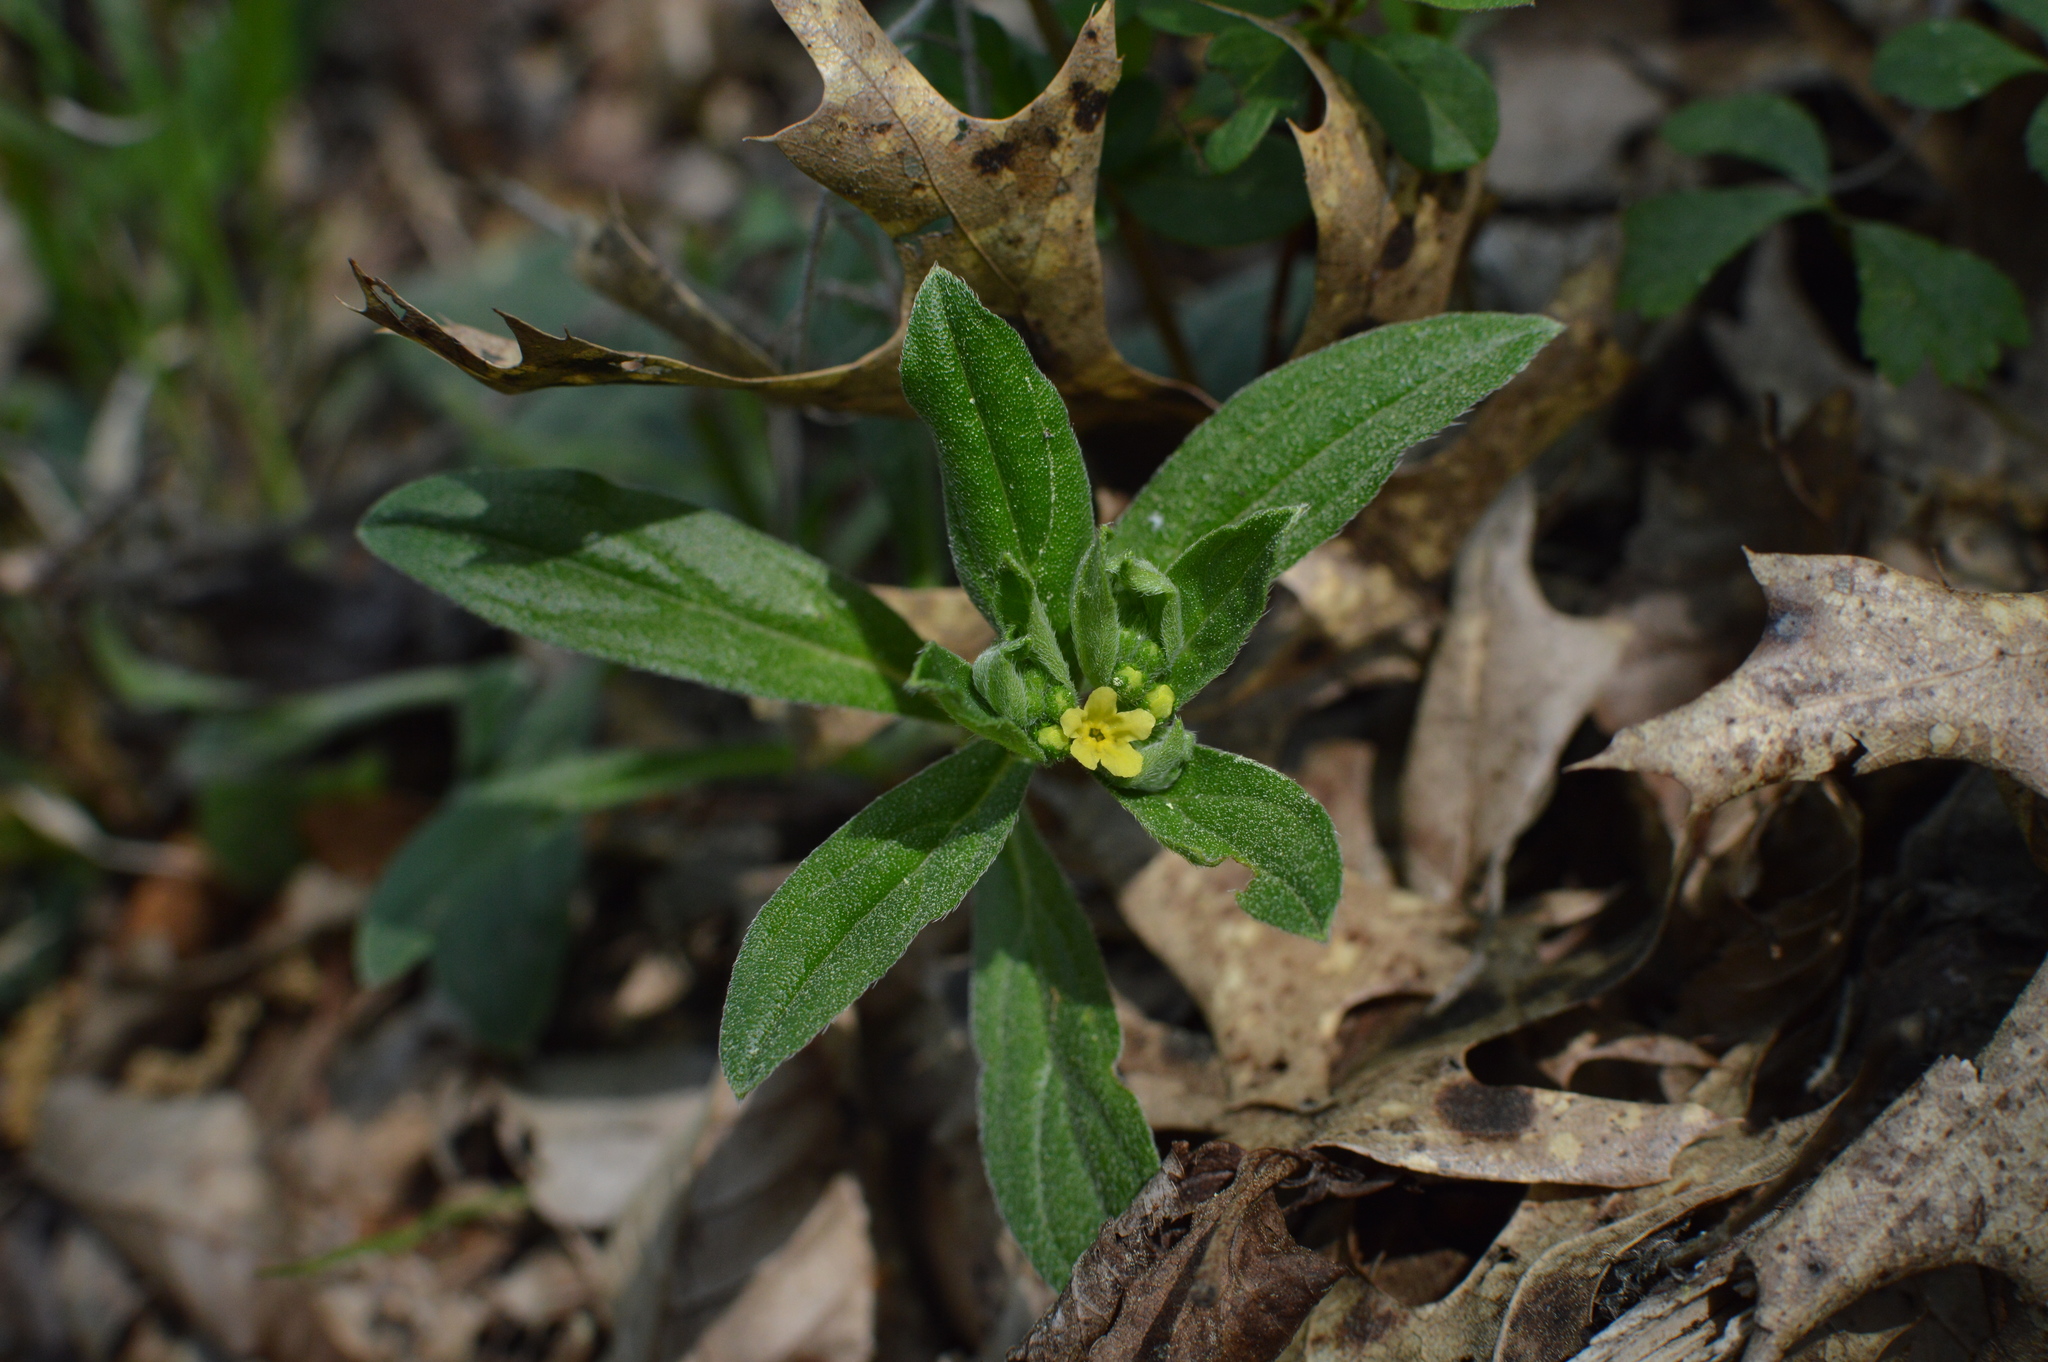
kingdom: Plantae
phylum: Tracheophyta
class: Magnoliopsida
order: Boraginales
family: Boraginaceae
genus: Lithospermum
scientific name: Lithospermum tuberosum
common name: Southern stoneseed
